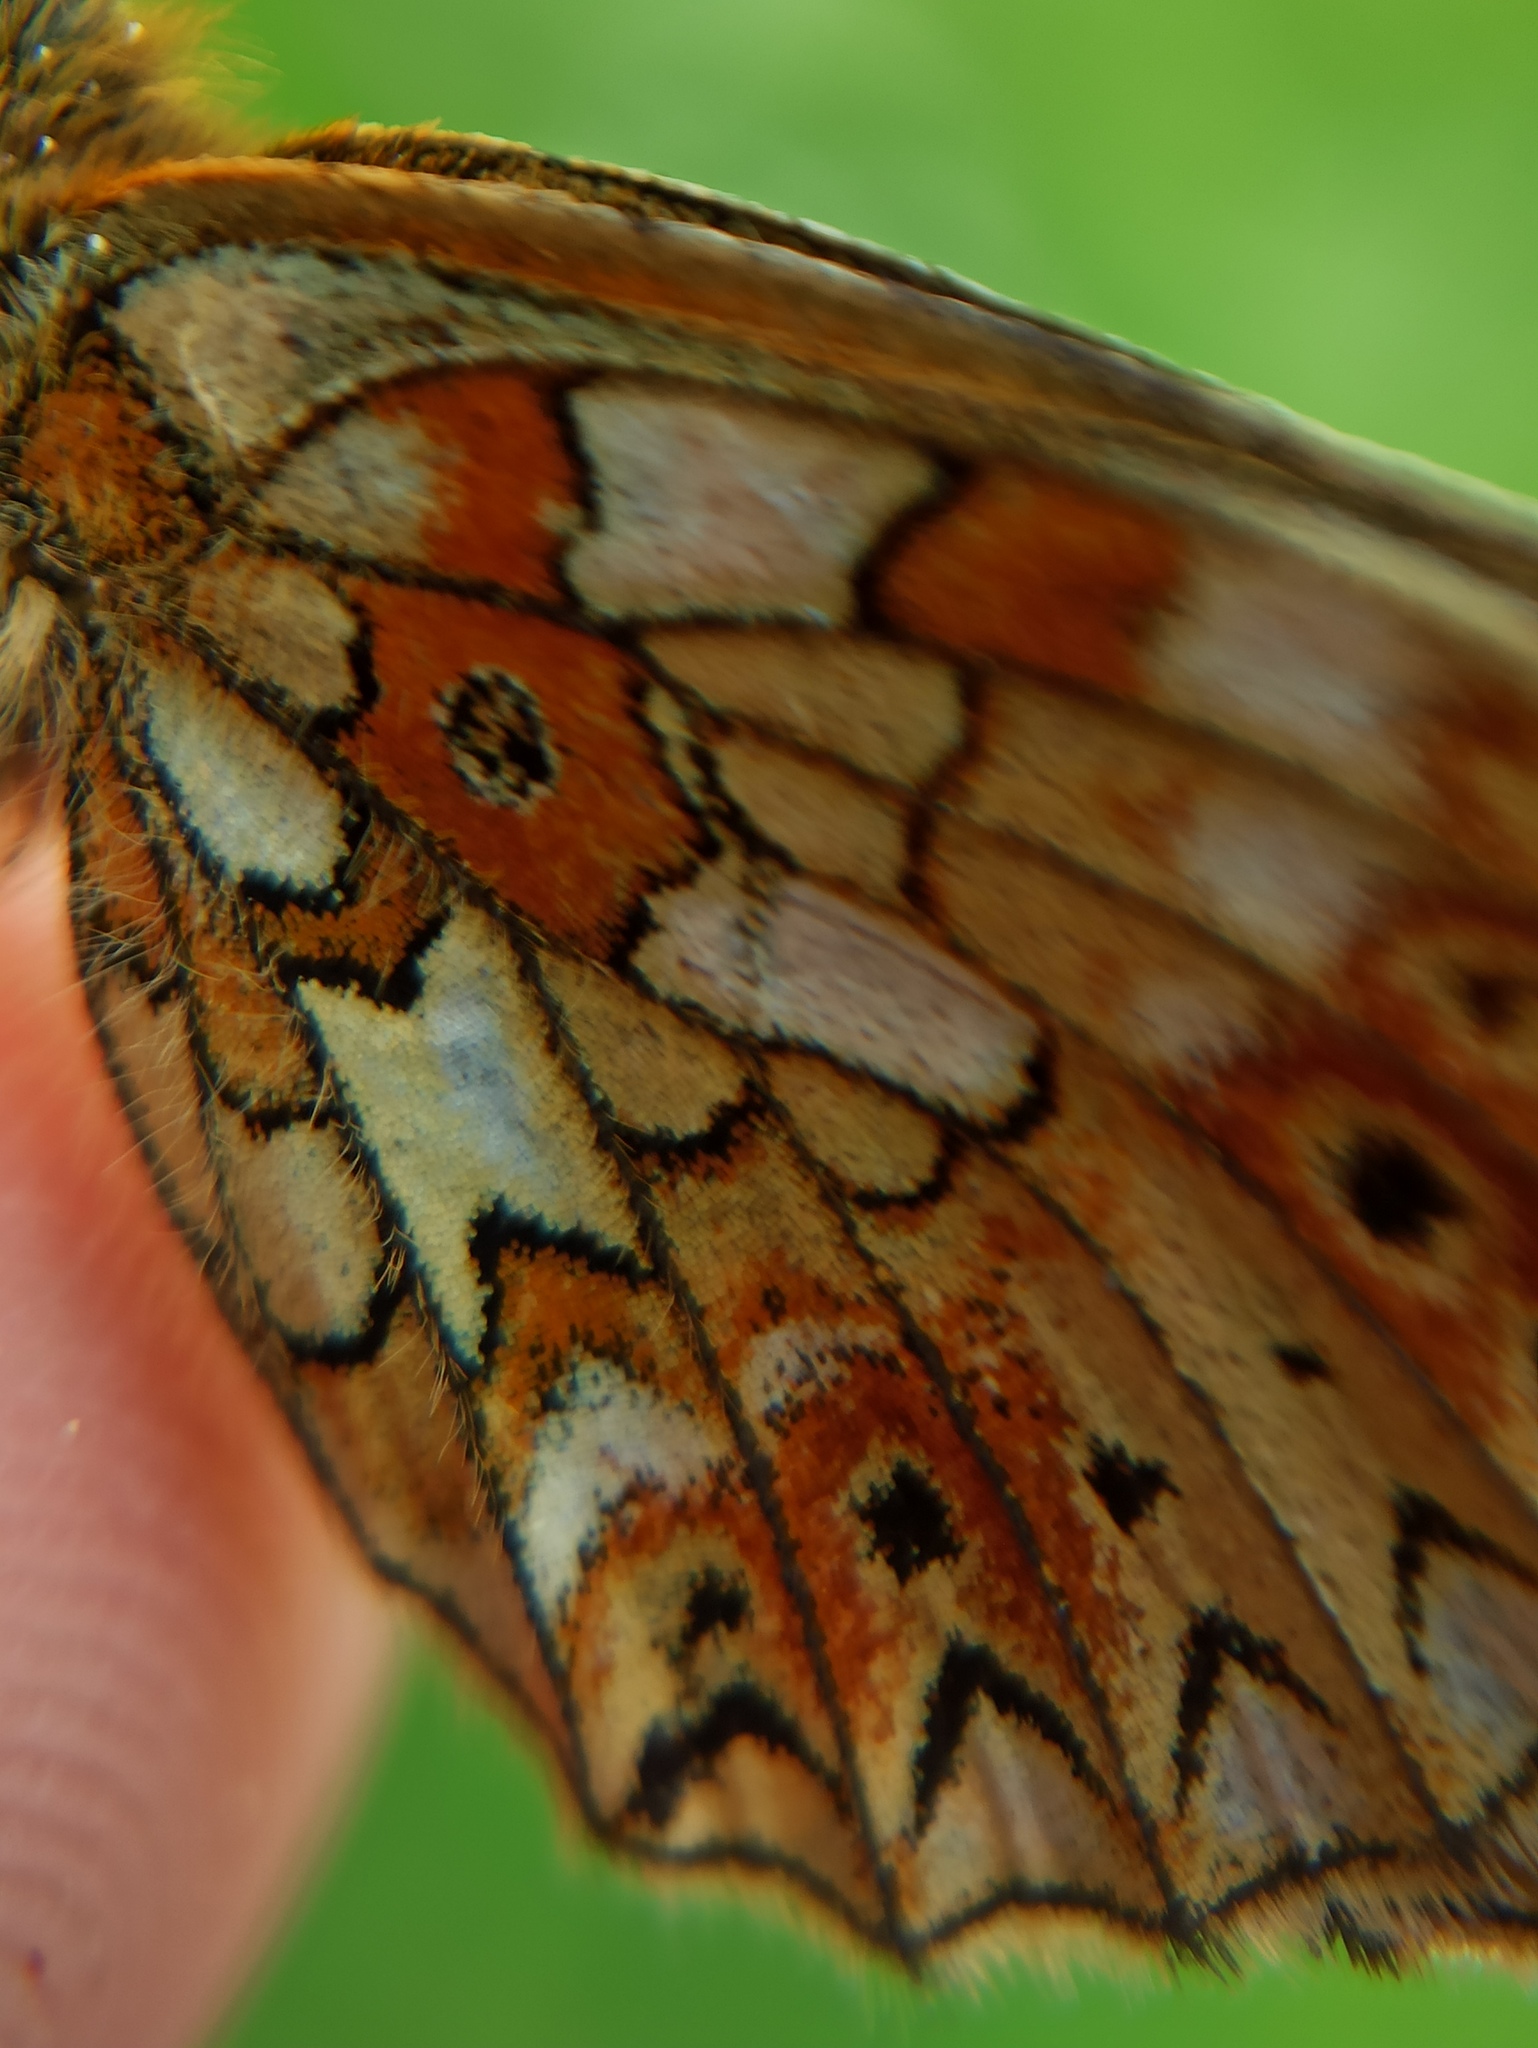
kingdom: Animalia
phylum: Arthropoda
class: Insecta
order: Lepidoptera
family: Nymphalidae
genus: Boloria
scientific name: Boloria selene
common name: Small pearl-bordered fritillary
